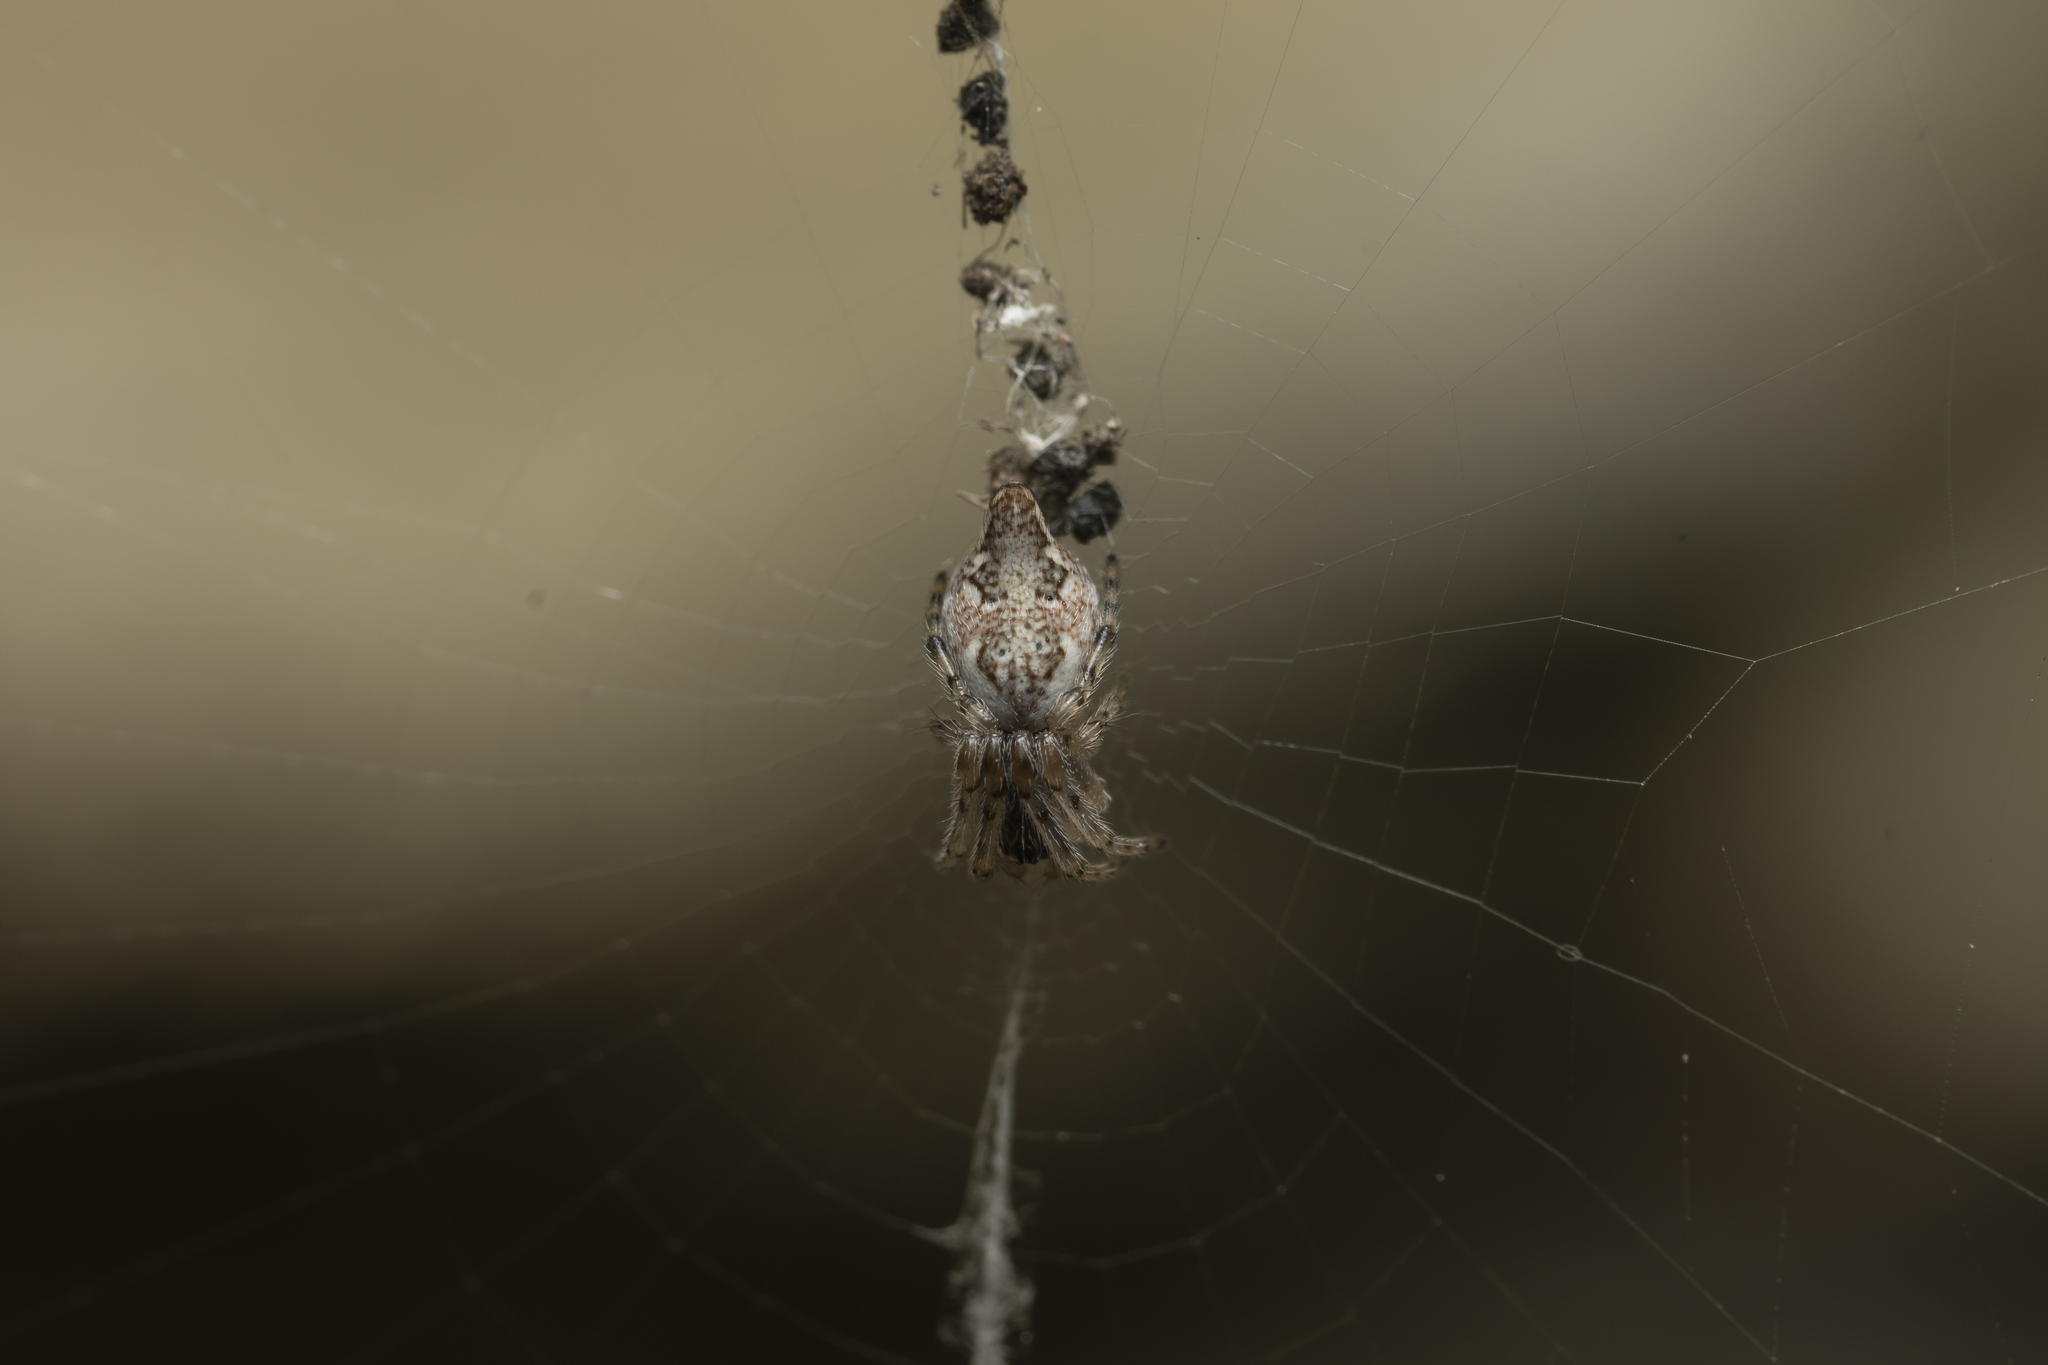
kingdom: Animalia
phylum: Arthropoda
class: Arachnida
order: Araneae
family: Araneidae
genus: Cyclosa
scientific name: Cyclosa conica
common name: Conical trashline orbweaver
